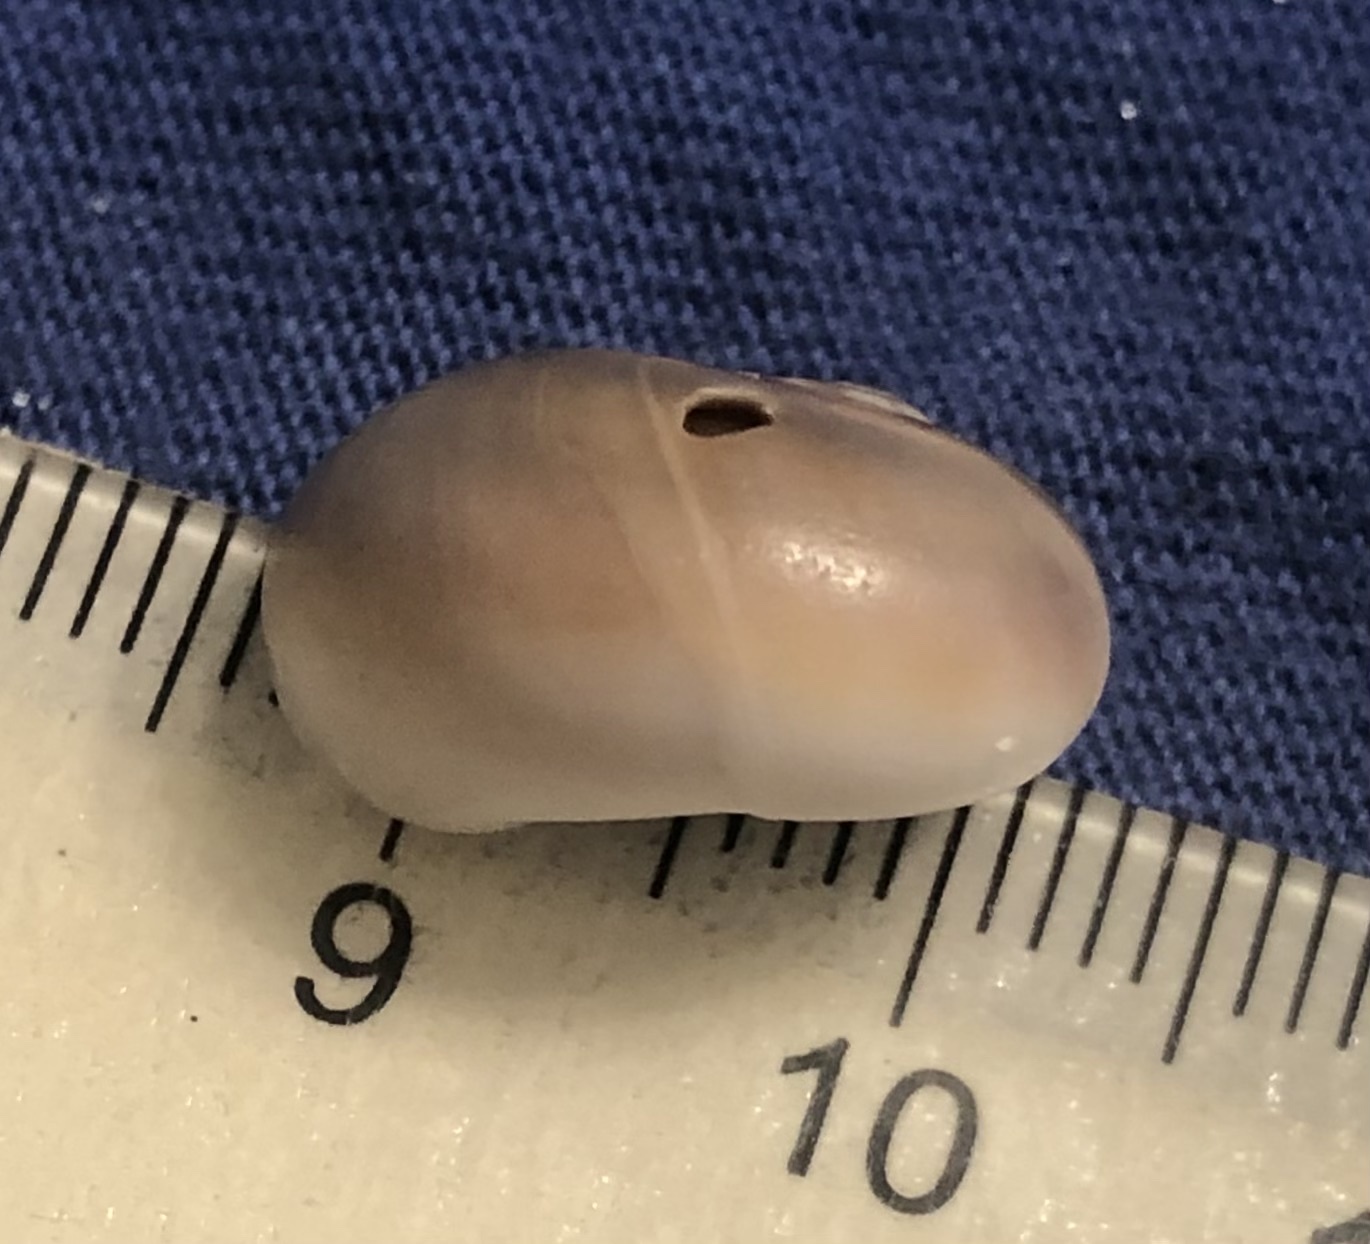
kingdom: Animalia
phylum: Mollusca
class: Gastropoda
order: Littorinimorpha
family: Naticidae
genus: Neverita
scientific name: Neverita duplicata
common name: Lobed moonsnail
